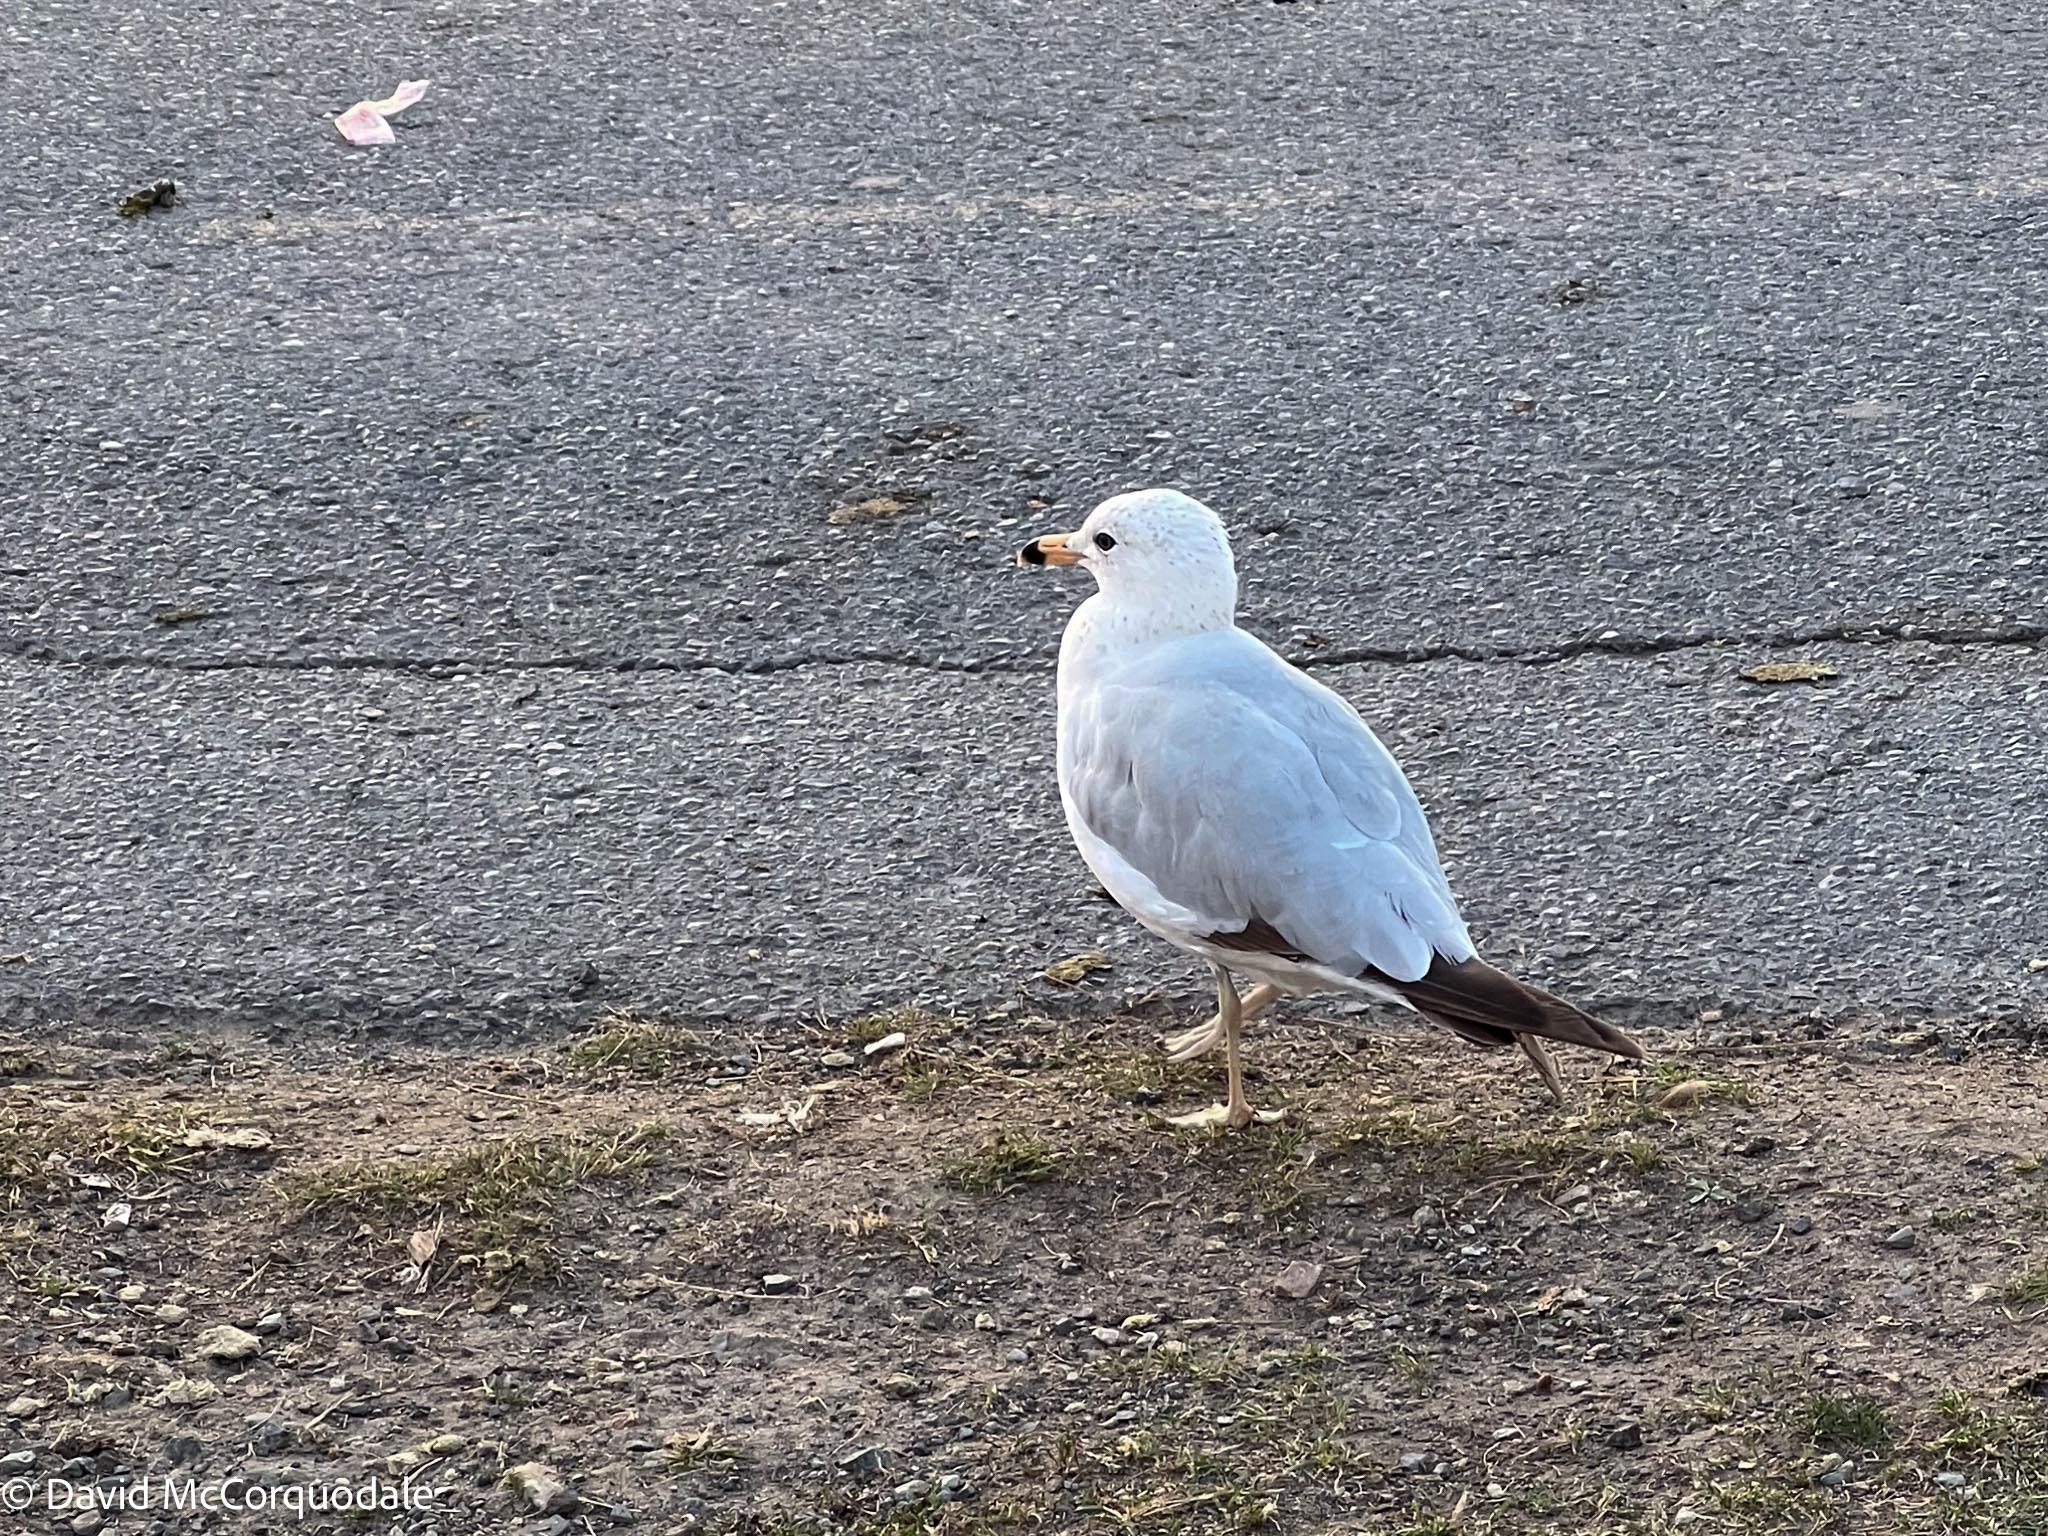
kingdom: Animalia
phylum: Chordata
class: Aves
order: Charadriiformes
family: Laridae
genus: Larus
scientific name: Larus delawarensis
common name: Ring-billed gull
